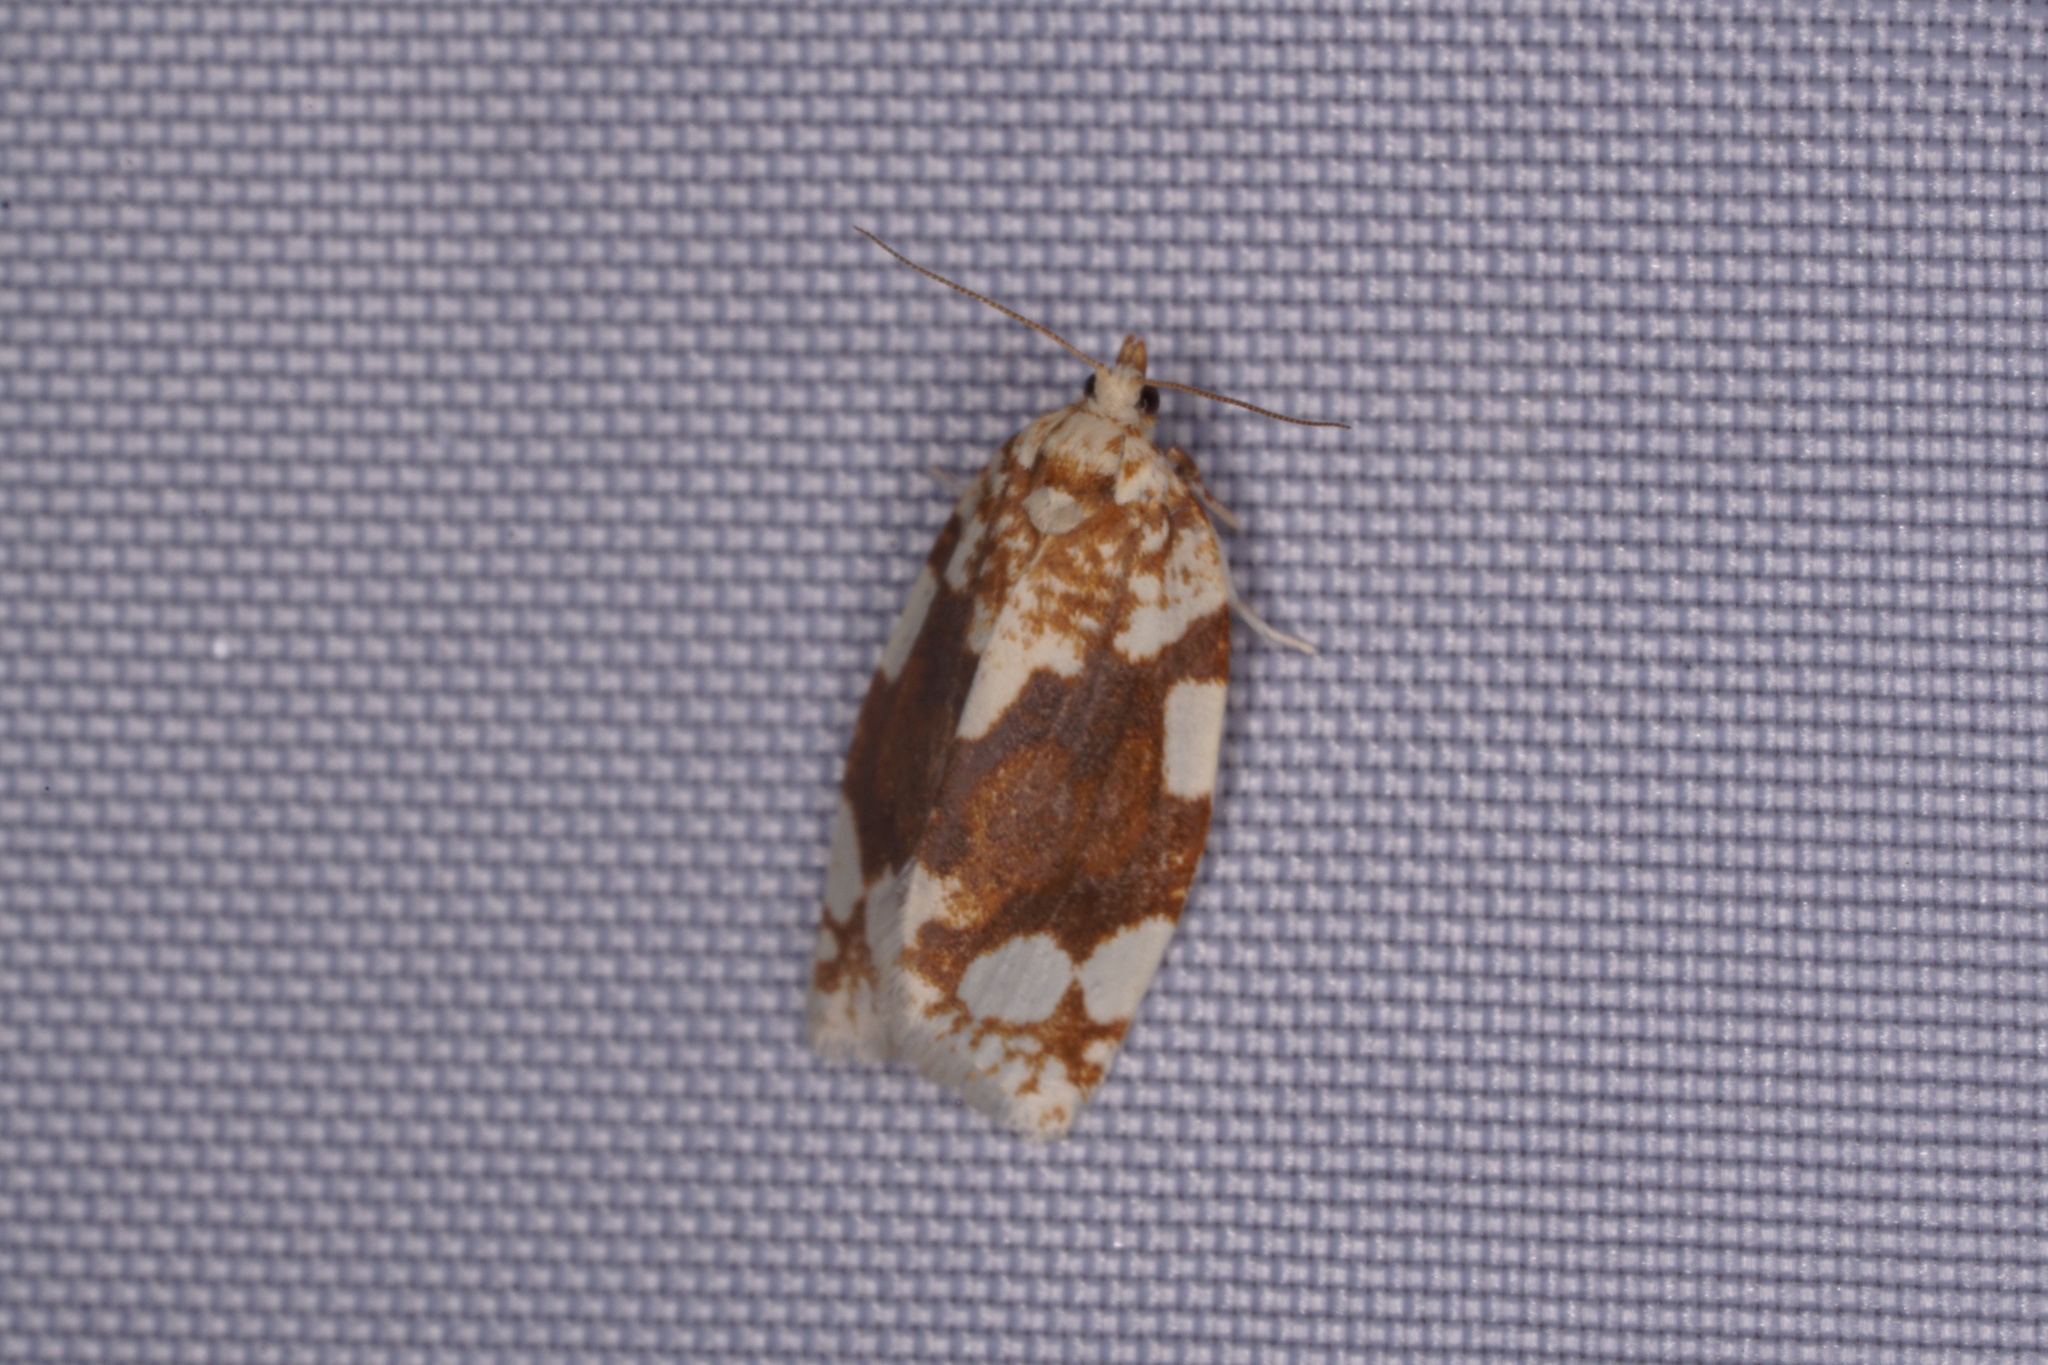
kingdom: Animalia
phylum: Arthropoda
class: Insecta
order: Lepidoptera
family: Tortricidae
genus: Argyrotaenia
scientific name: Argyrotaenia alisellana
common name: White-spotted leafroller moth
